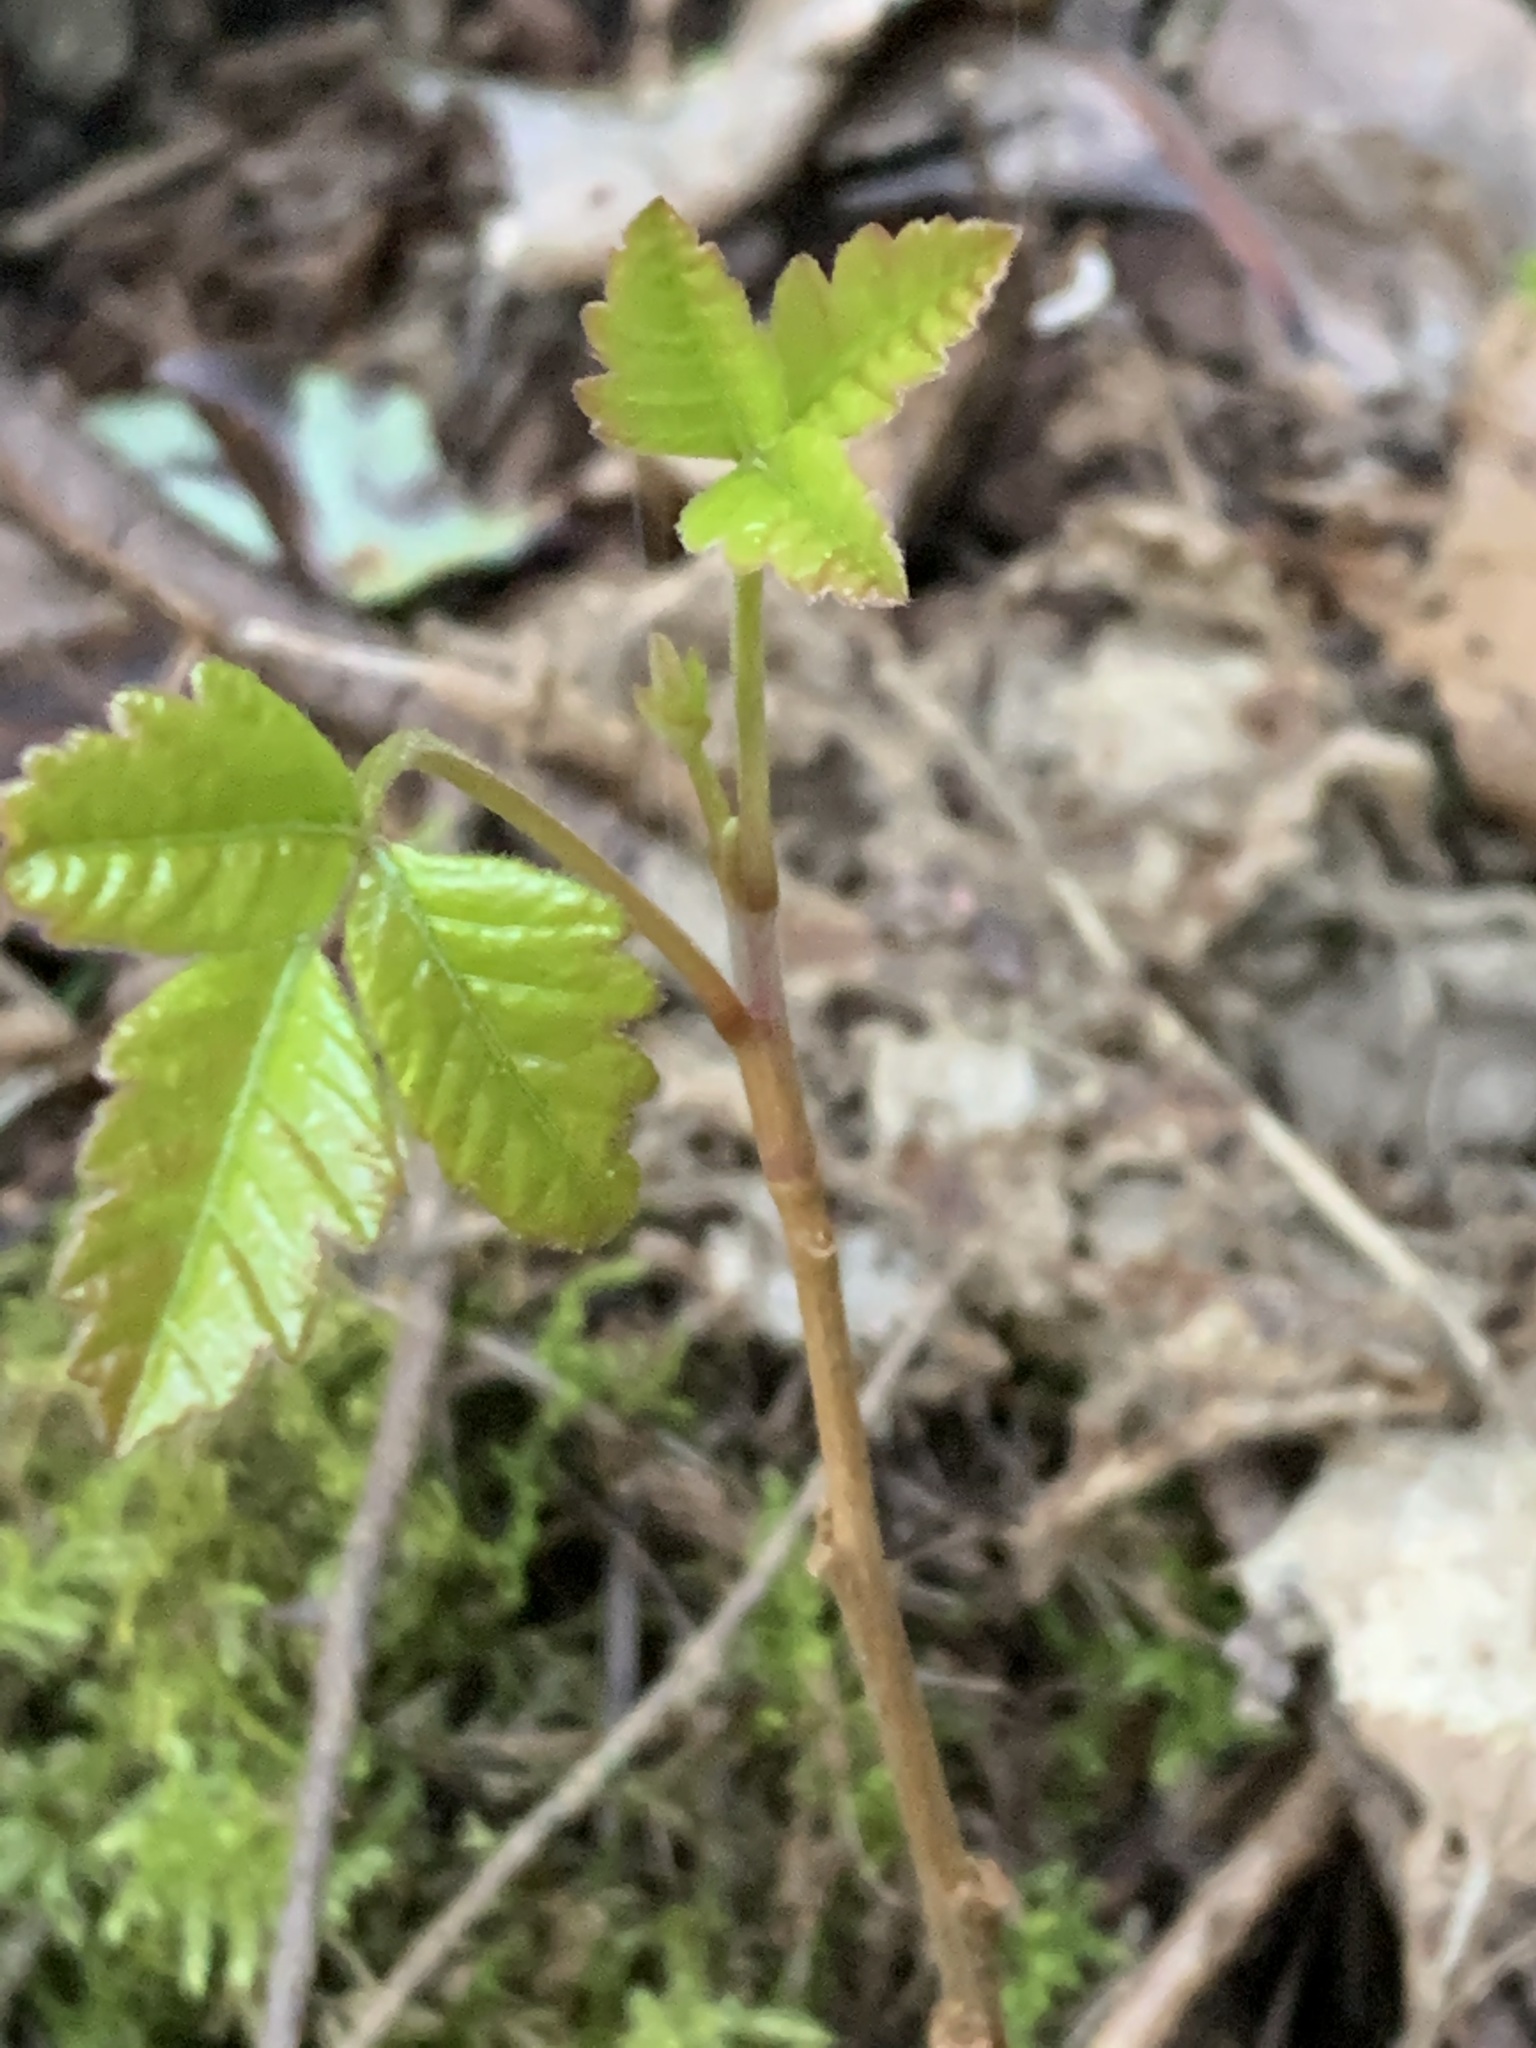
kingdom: Plantae
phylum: Tracheophyta
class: Magnoliopsida
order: Sapindales
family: Anacardiaceae
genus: Toxicodendron
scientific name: Toxicodendron diversilobum
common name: Pacific poison-oak
